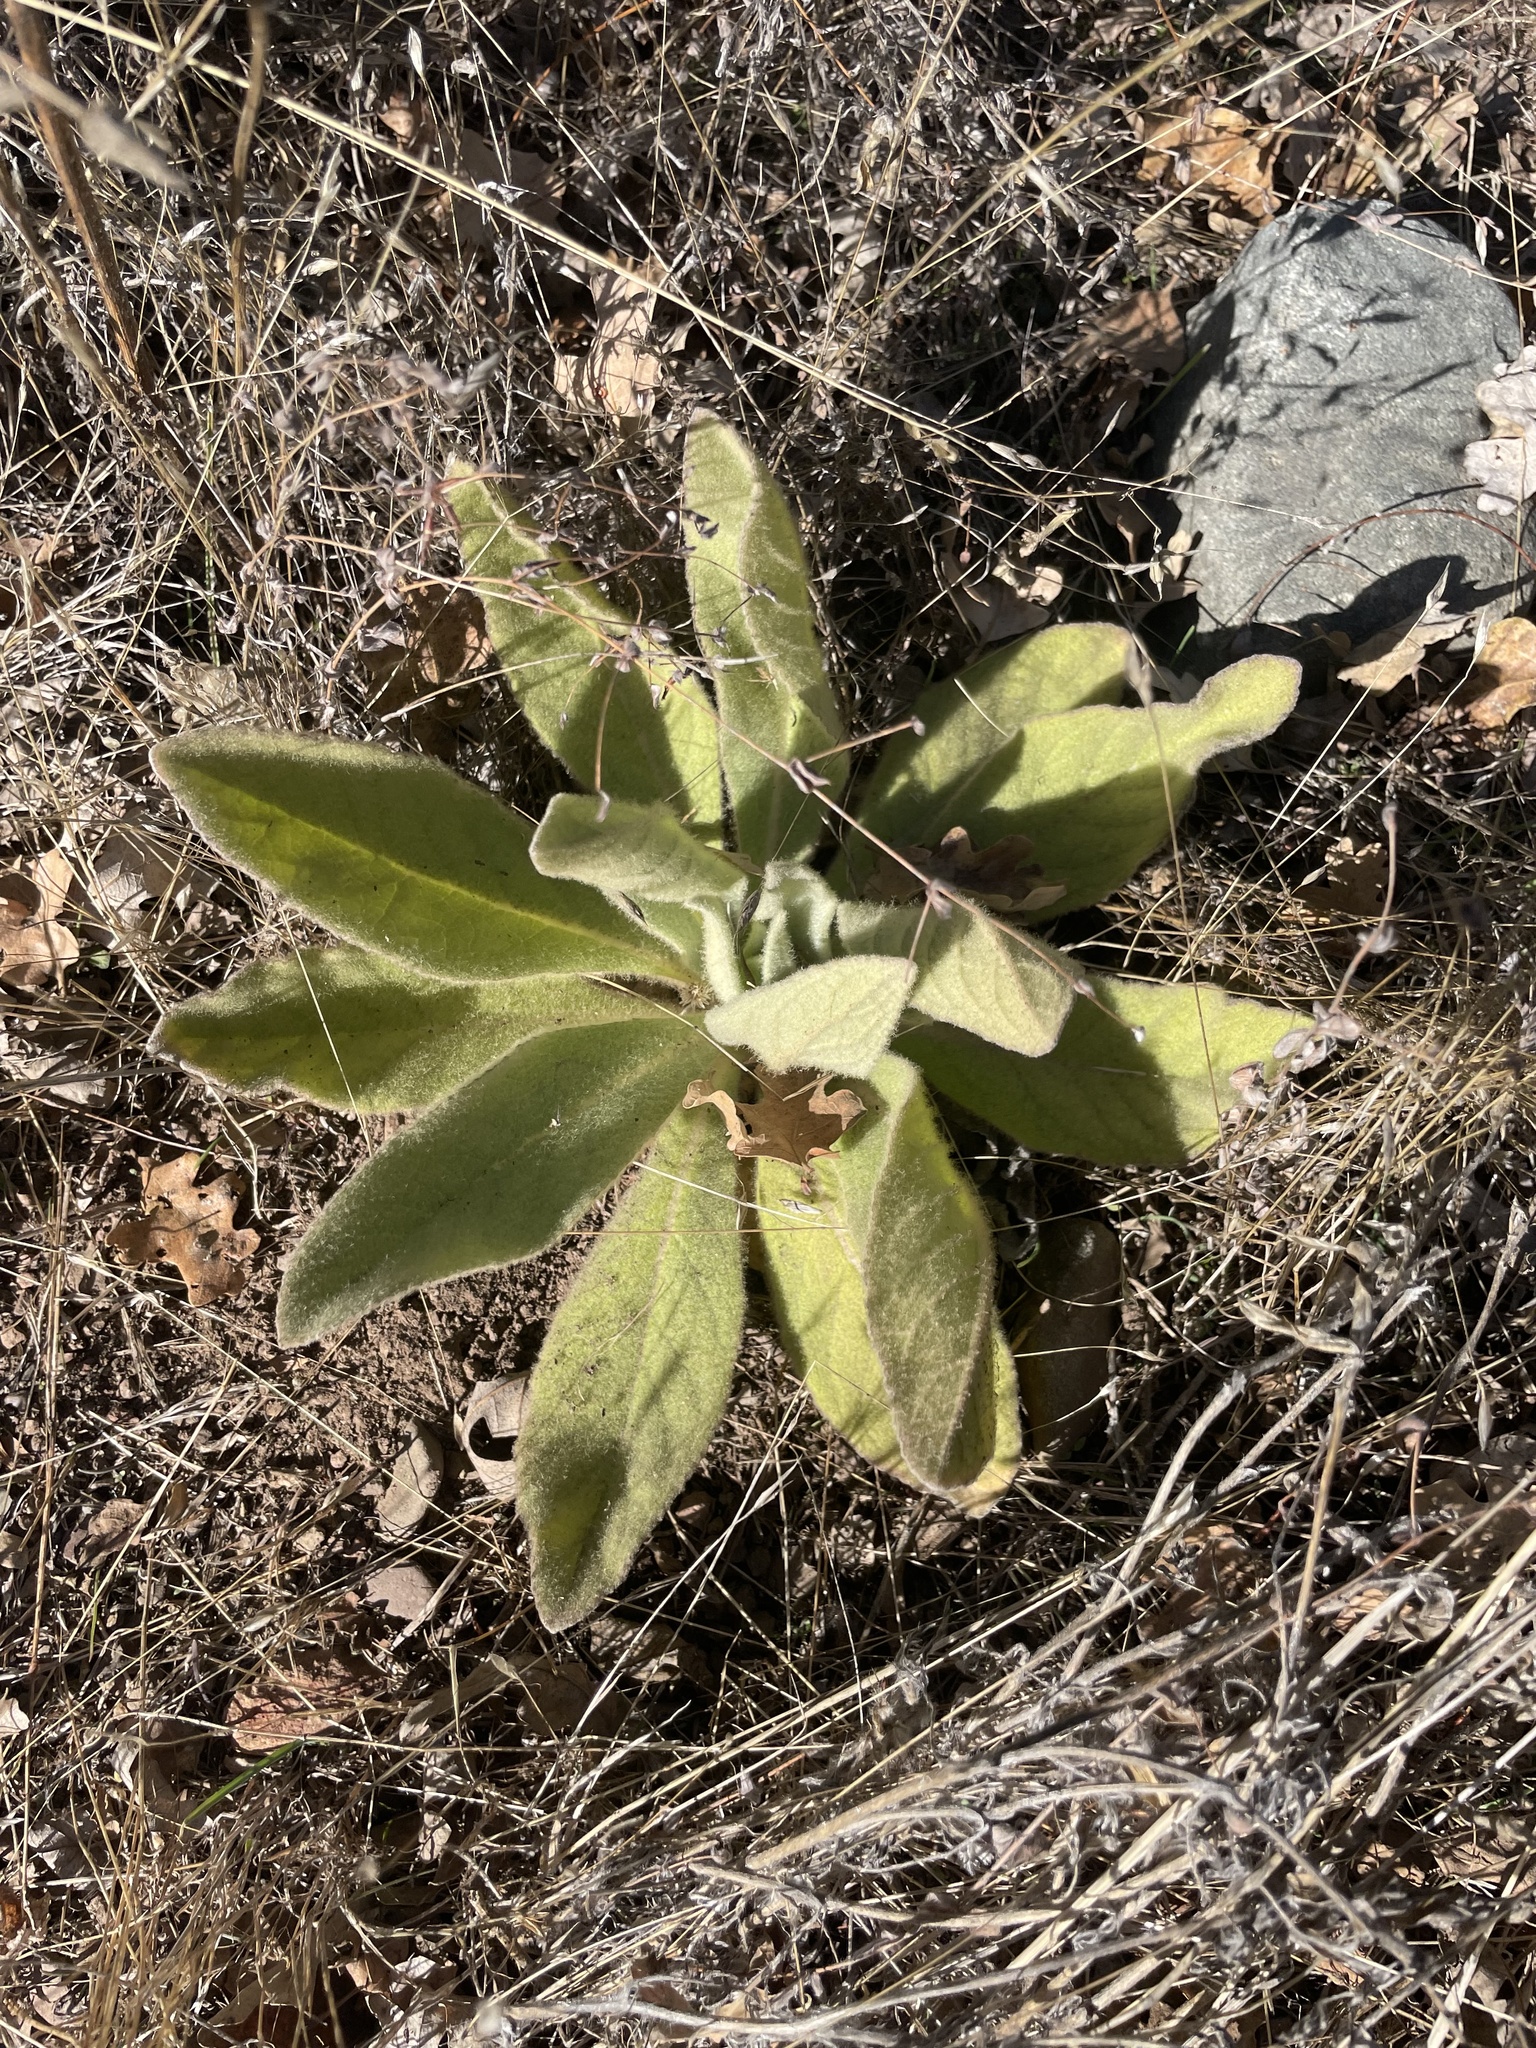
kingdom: Plantae
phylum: Tracheophyta
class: Magnoliopsida
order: Lamiales
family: Scrophulariaceae
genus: Verbascum
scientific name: Verbascum thapsus
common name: Common mullein
